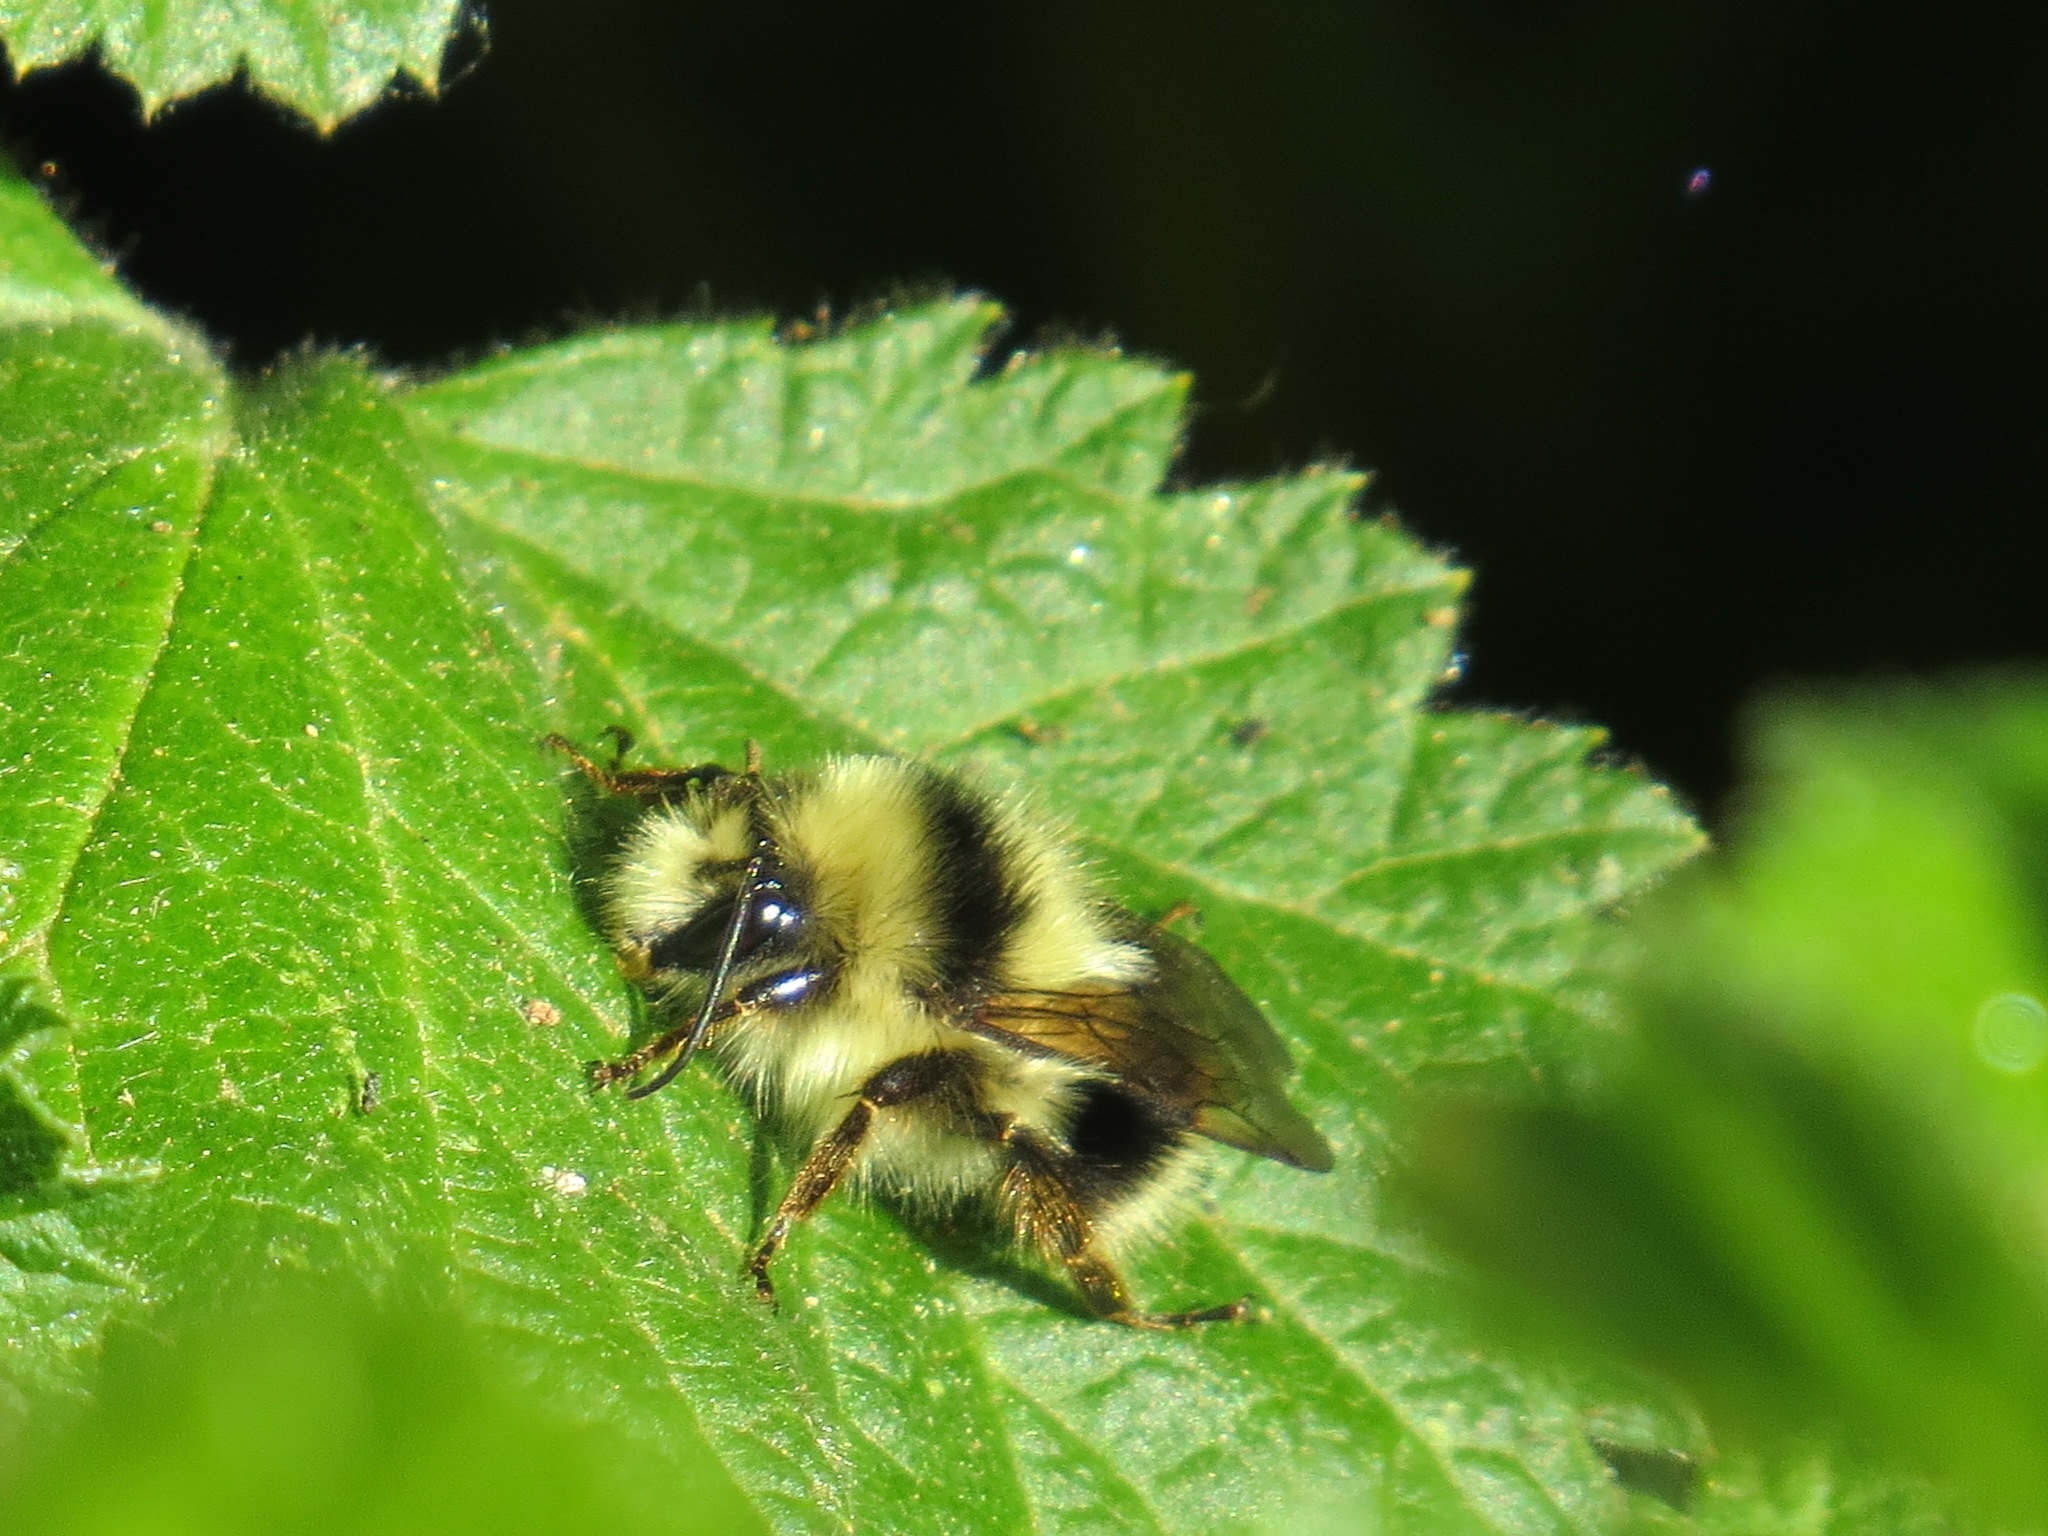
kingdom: Animalia
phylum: Arthropoda
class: Insecta
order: Hymenoptera
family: Apidae
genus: Bombus
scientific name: Bombus melanopygus
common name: Black tail bumble bee
